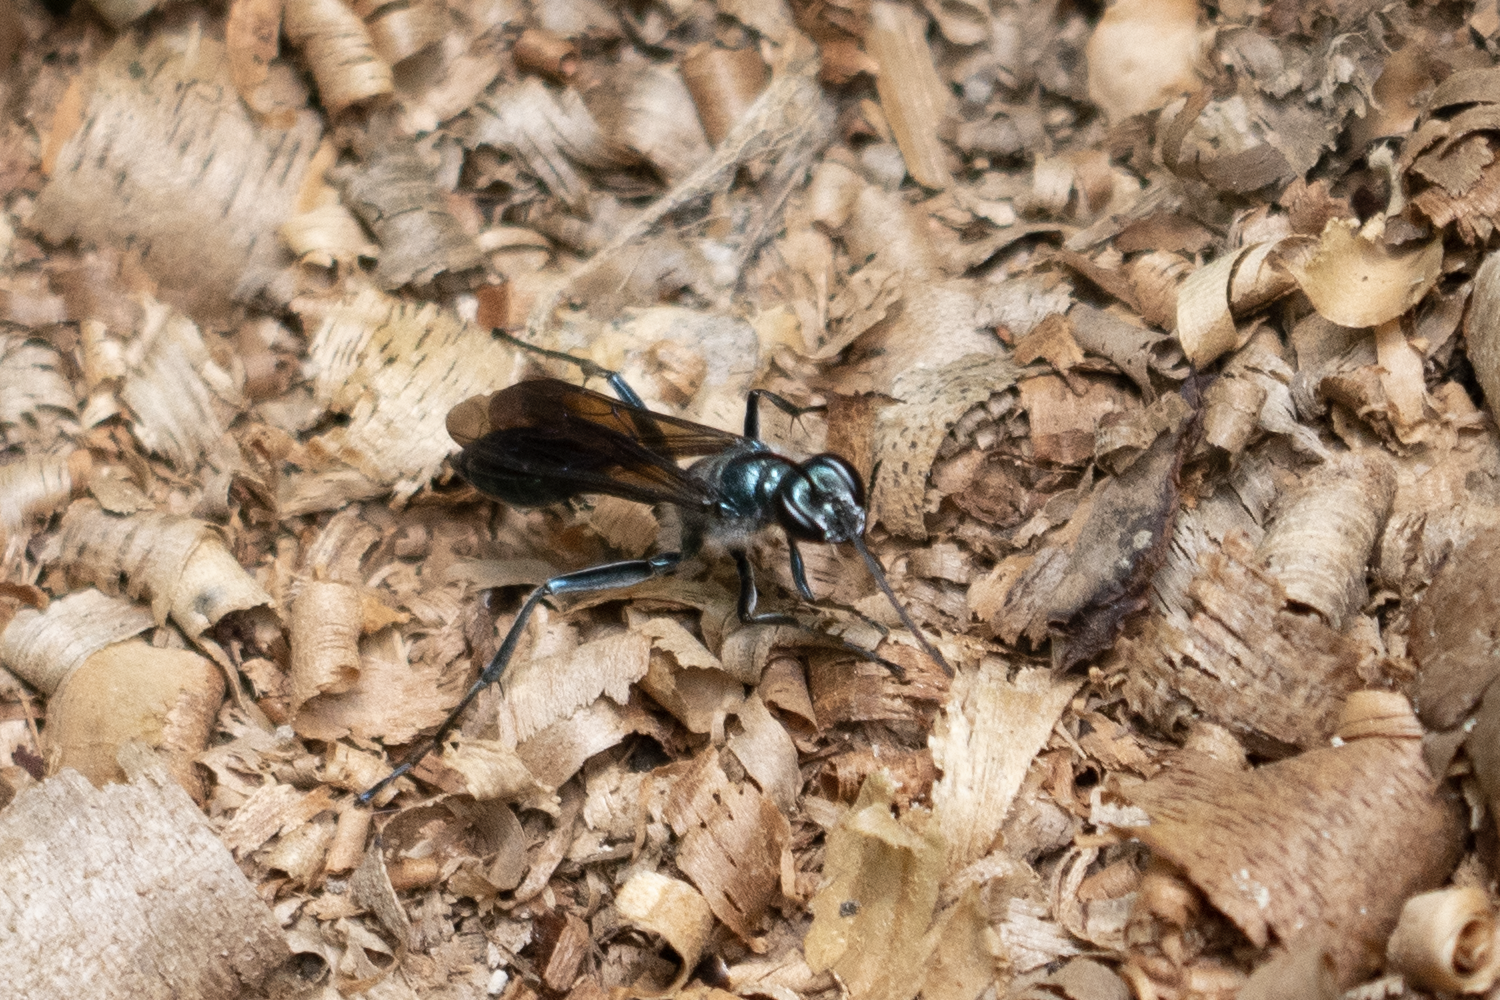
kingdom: Animalia
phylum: Arthropoda
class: Insecta
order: Hymenoptera
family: Sphecidae
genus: Chalybion
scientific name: Chalybion japonicum
